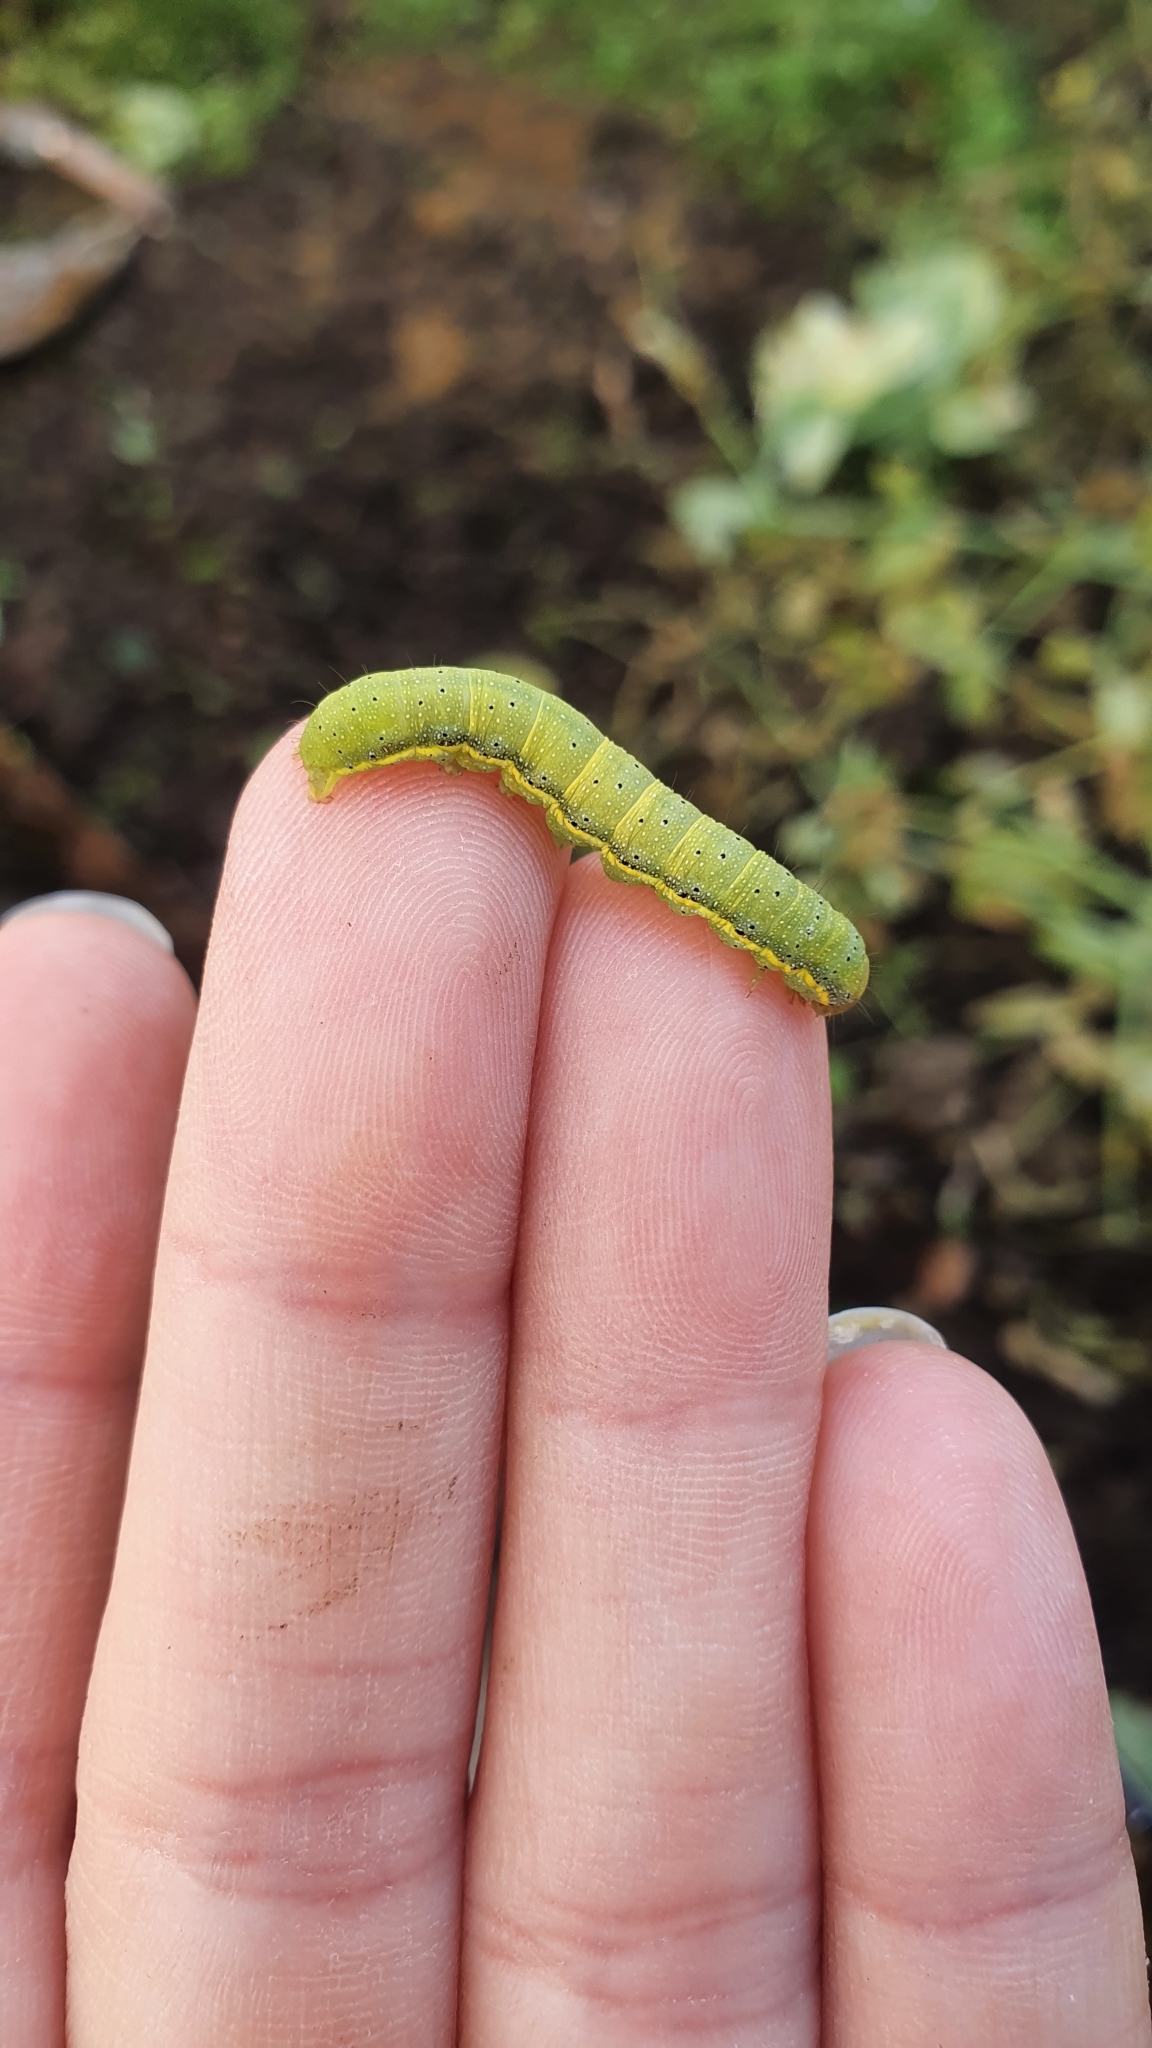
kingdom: Animalia
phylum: Arthropoda
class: Insecta
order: Lepidoptera
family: Noctuidae
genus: Lacanobia
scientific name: Lacanobia oleracea
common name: Bright-line brown-eye
